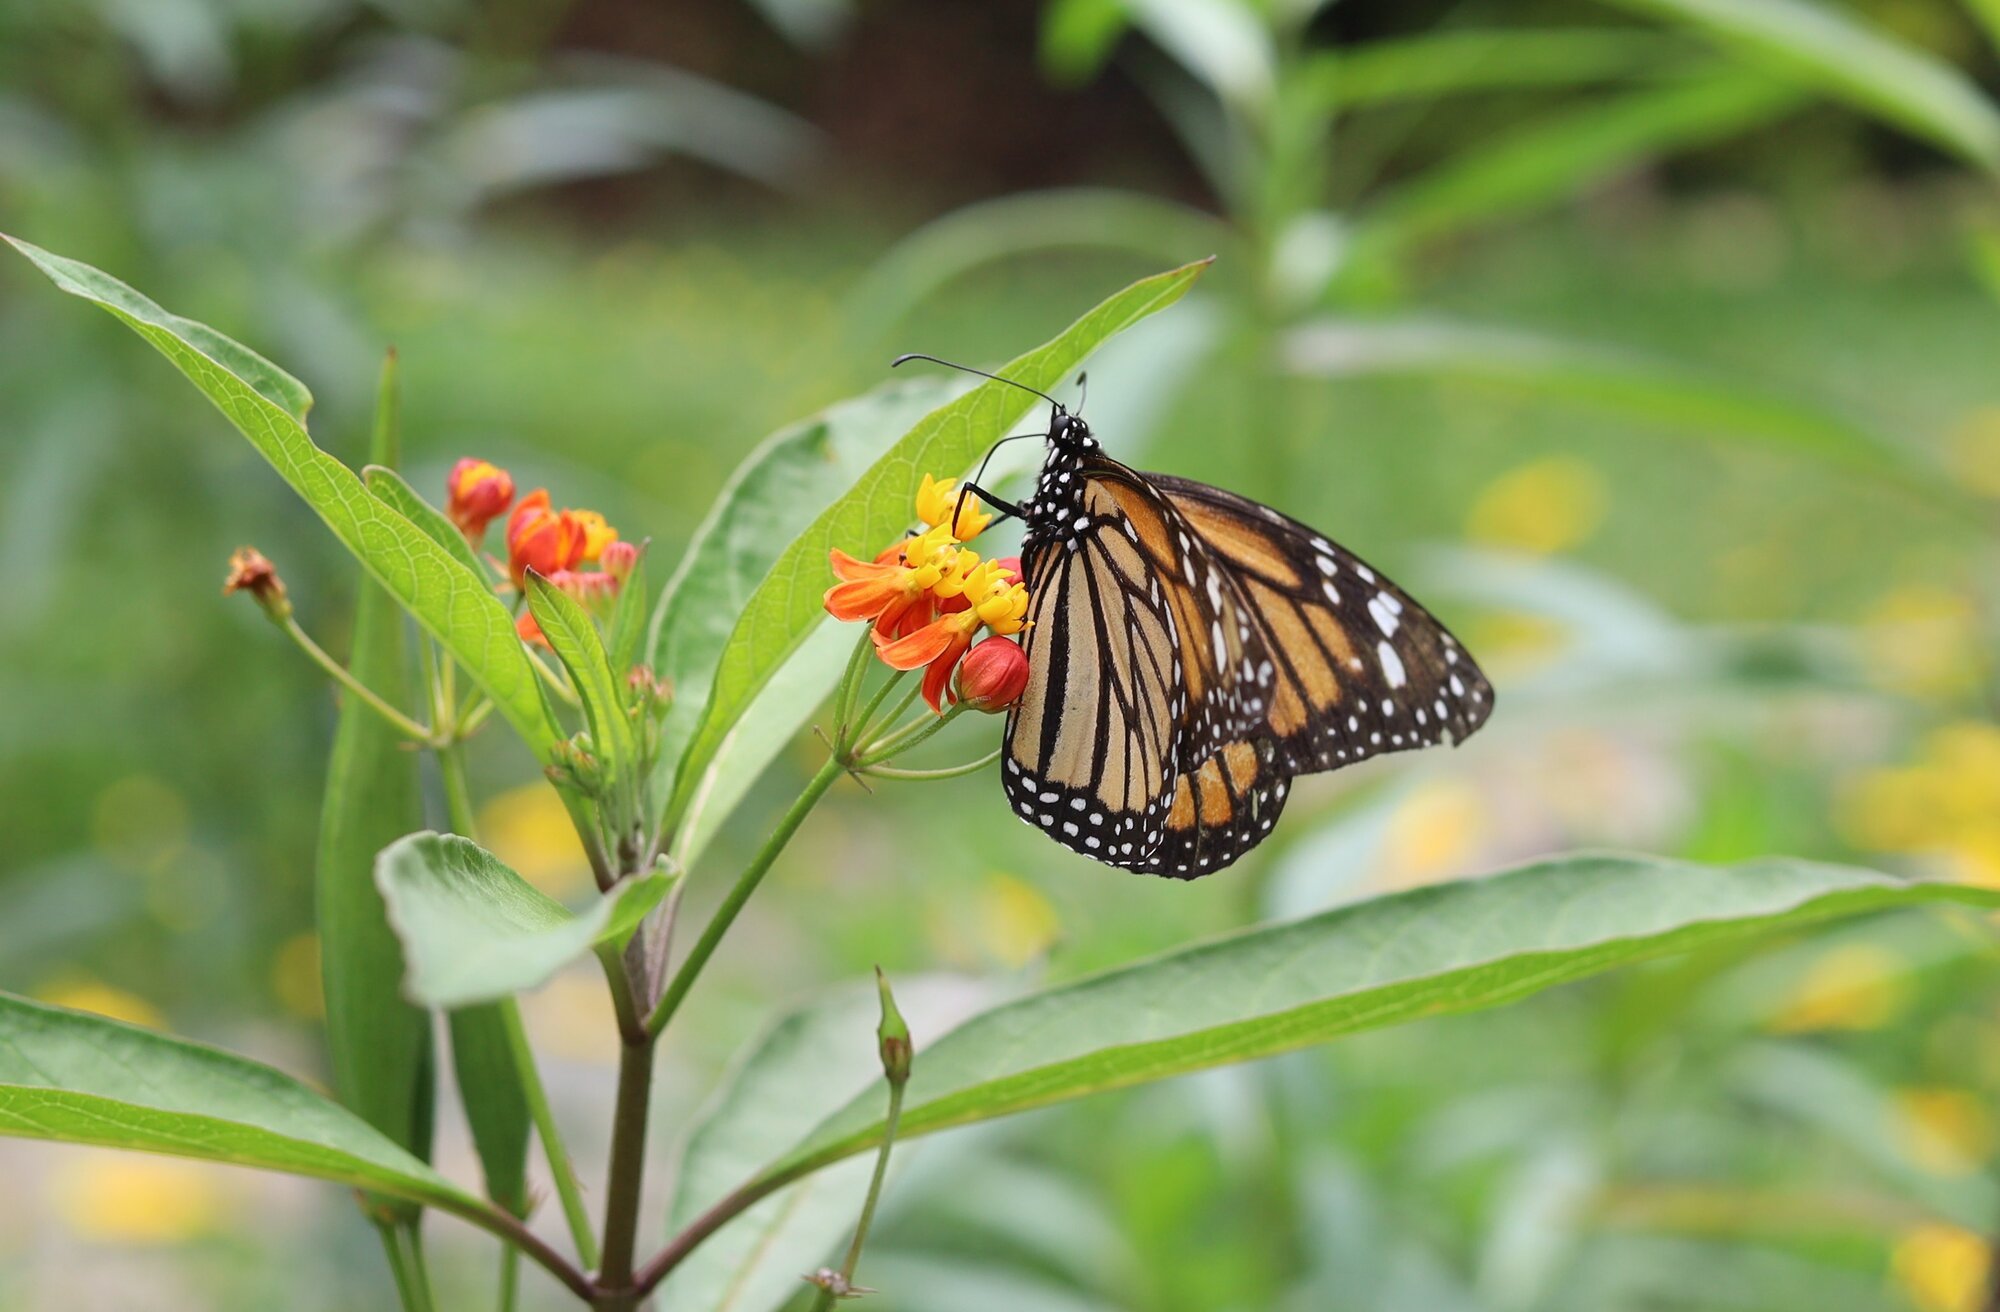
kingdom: Animalia
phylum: Arthropoda
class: Insecta
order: Lepidoptera
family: Nymphalidae
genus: Danaus
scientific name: Danaus plexippus
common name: Monarch
